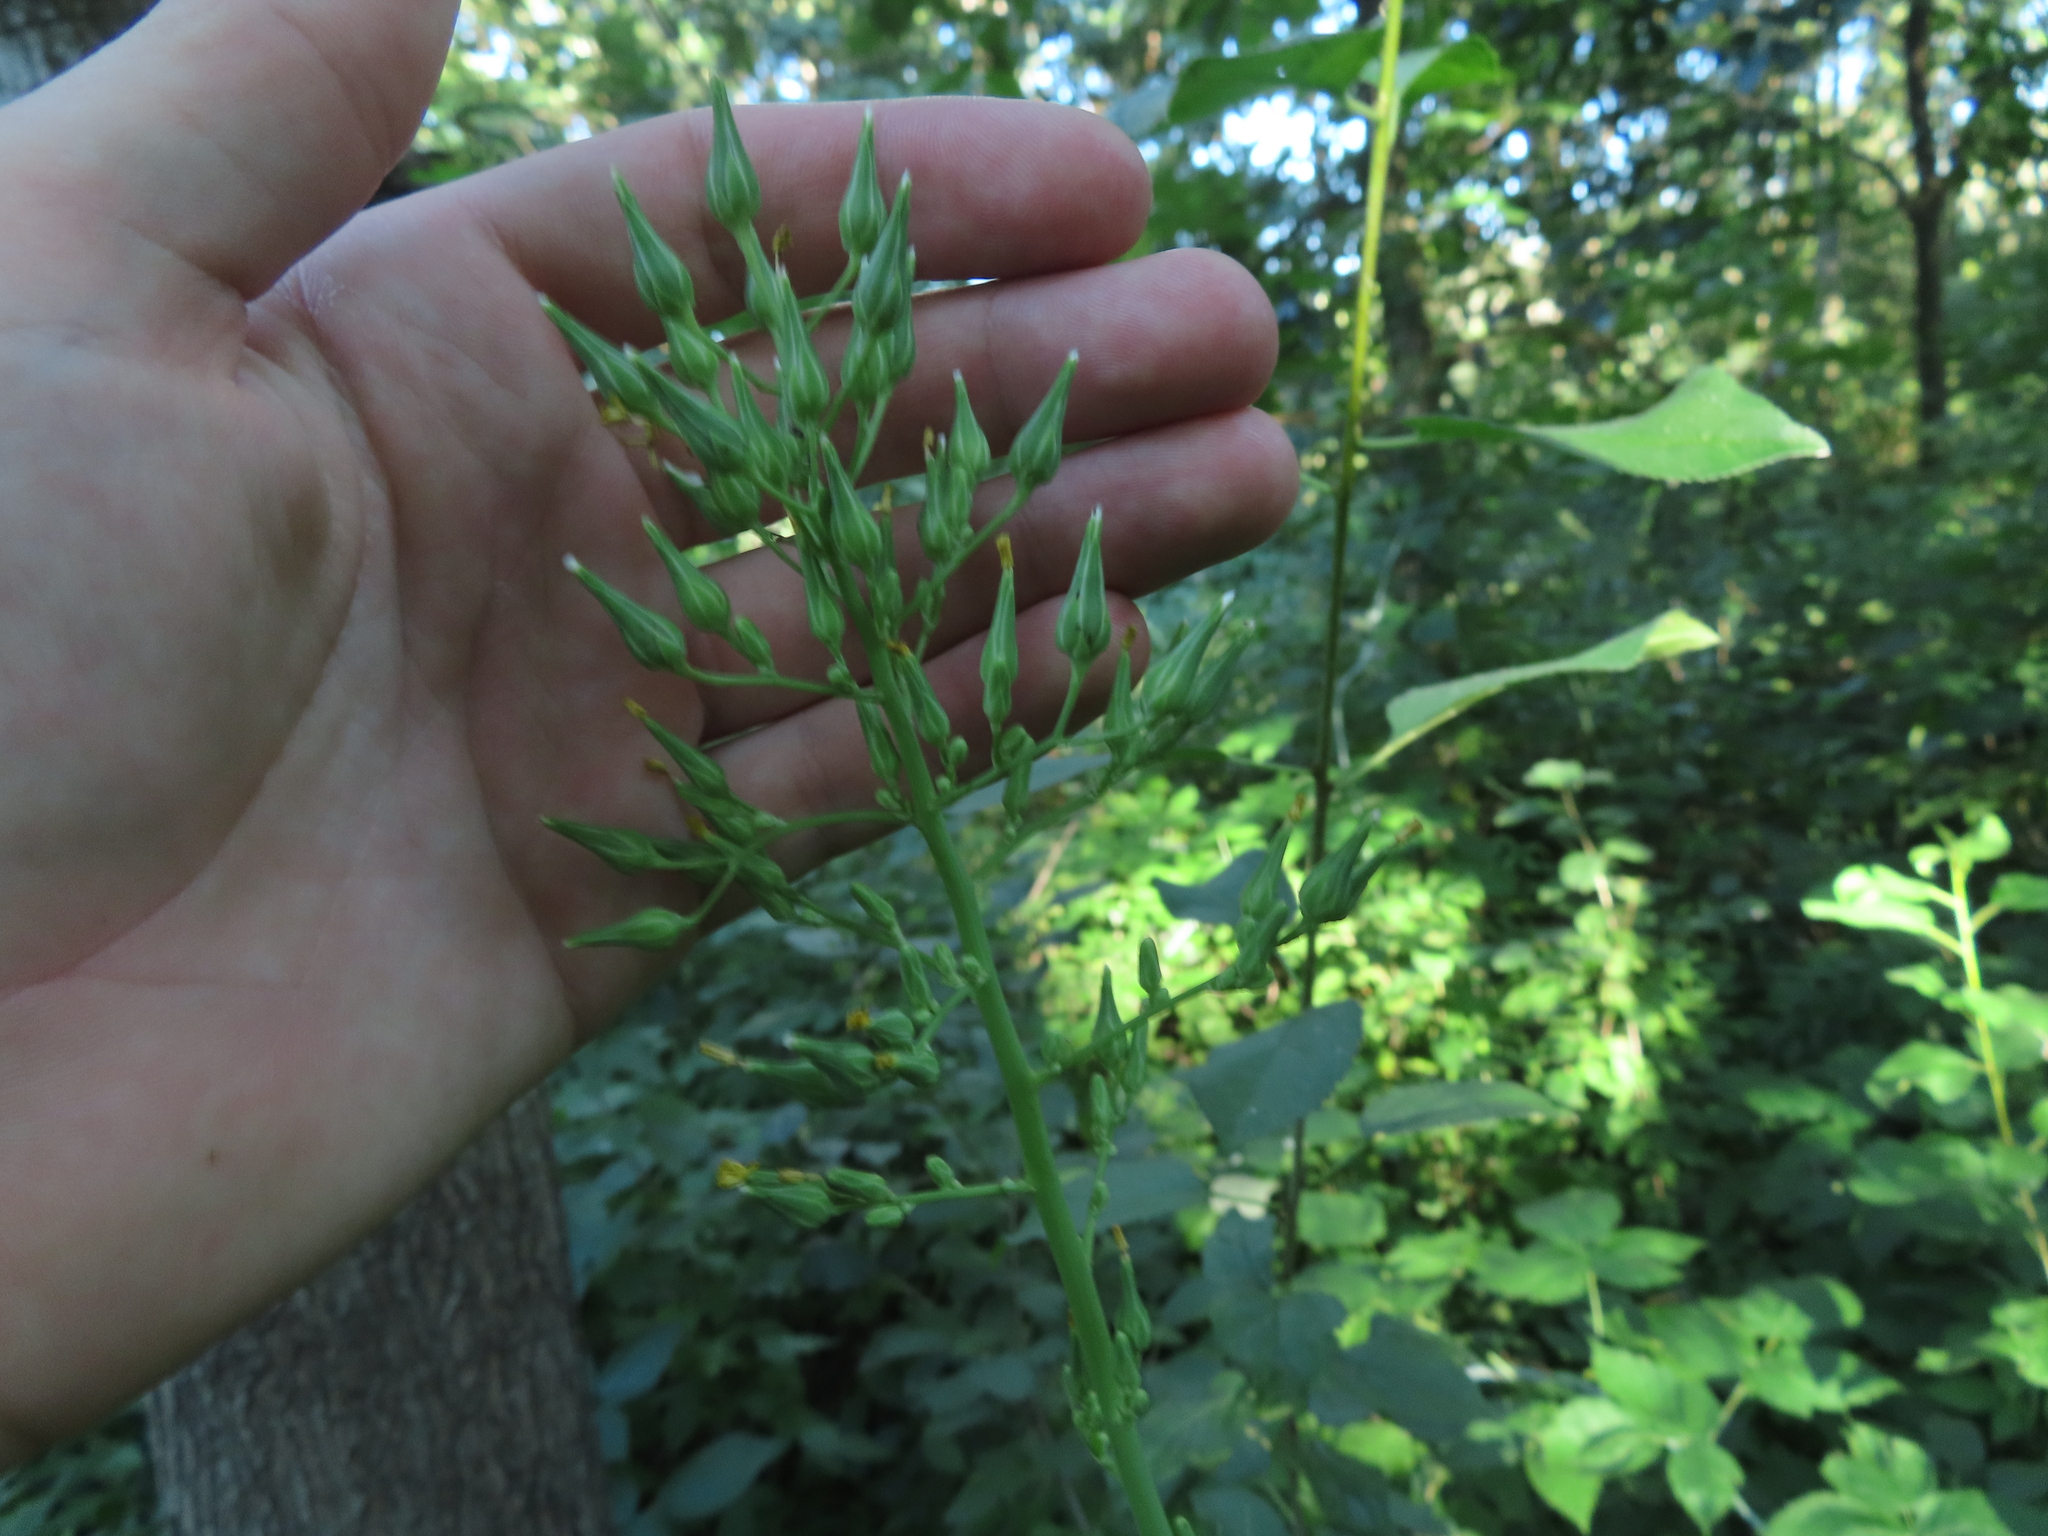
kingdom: Plantae
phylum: Tracheophyta
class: Magnoliopsida
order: Asterales
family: Asteraceae
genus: Lactuca
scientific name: Lactuca canadensis
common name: Canada lettuce
